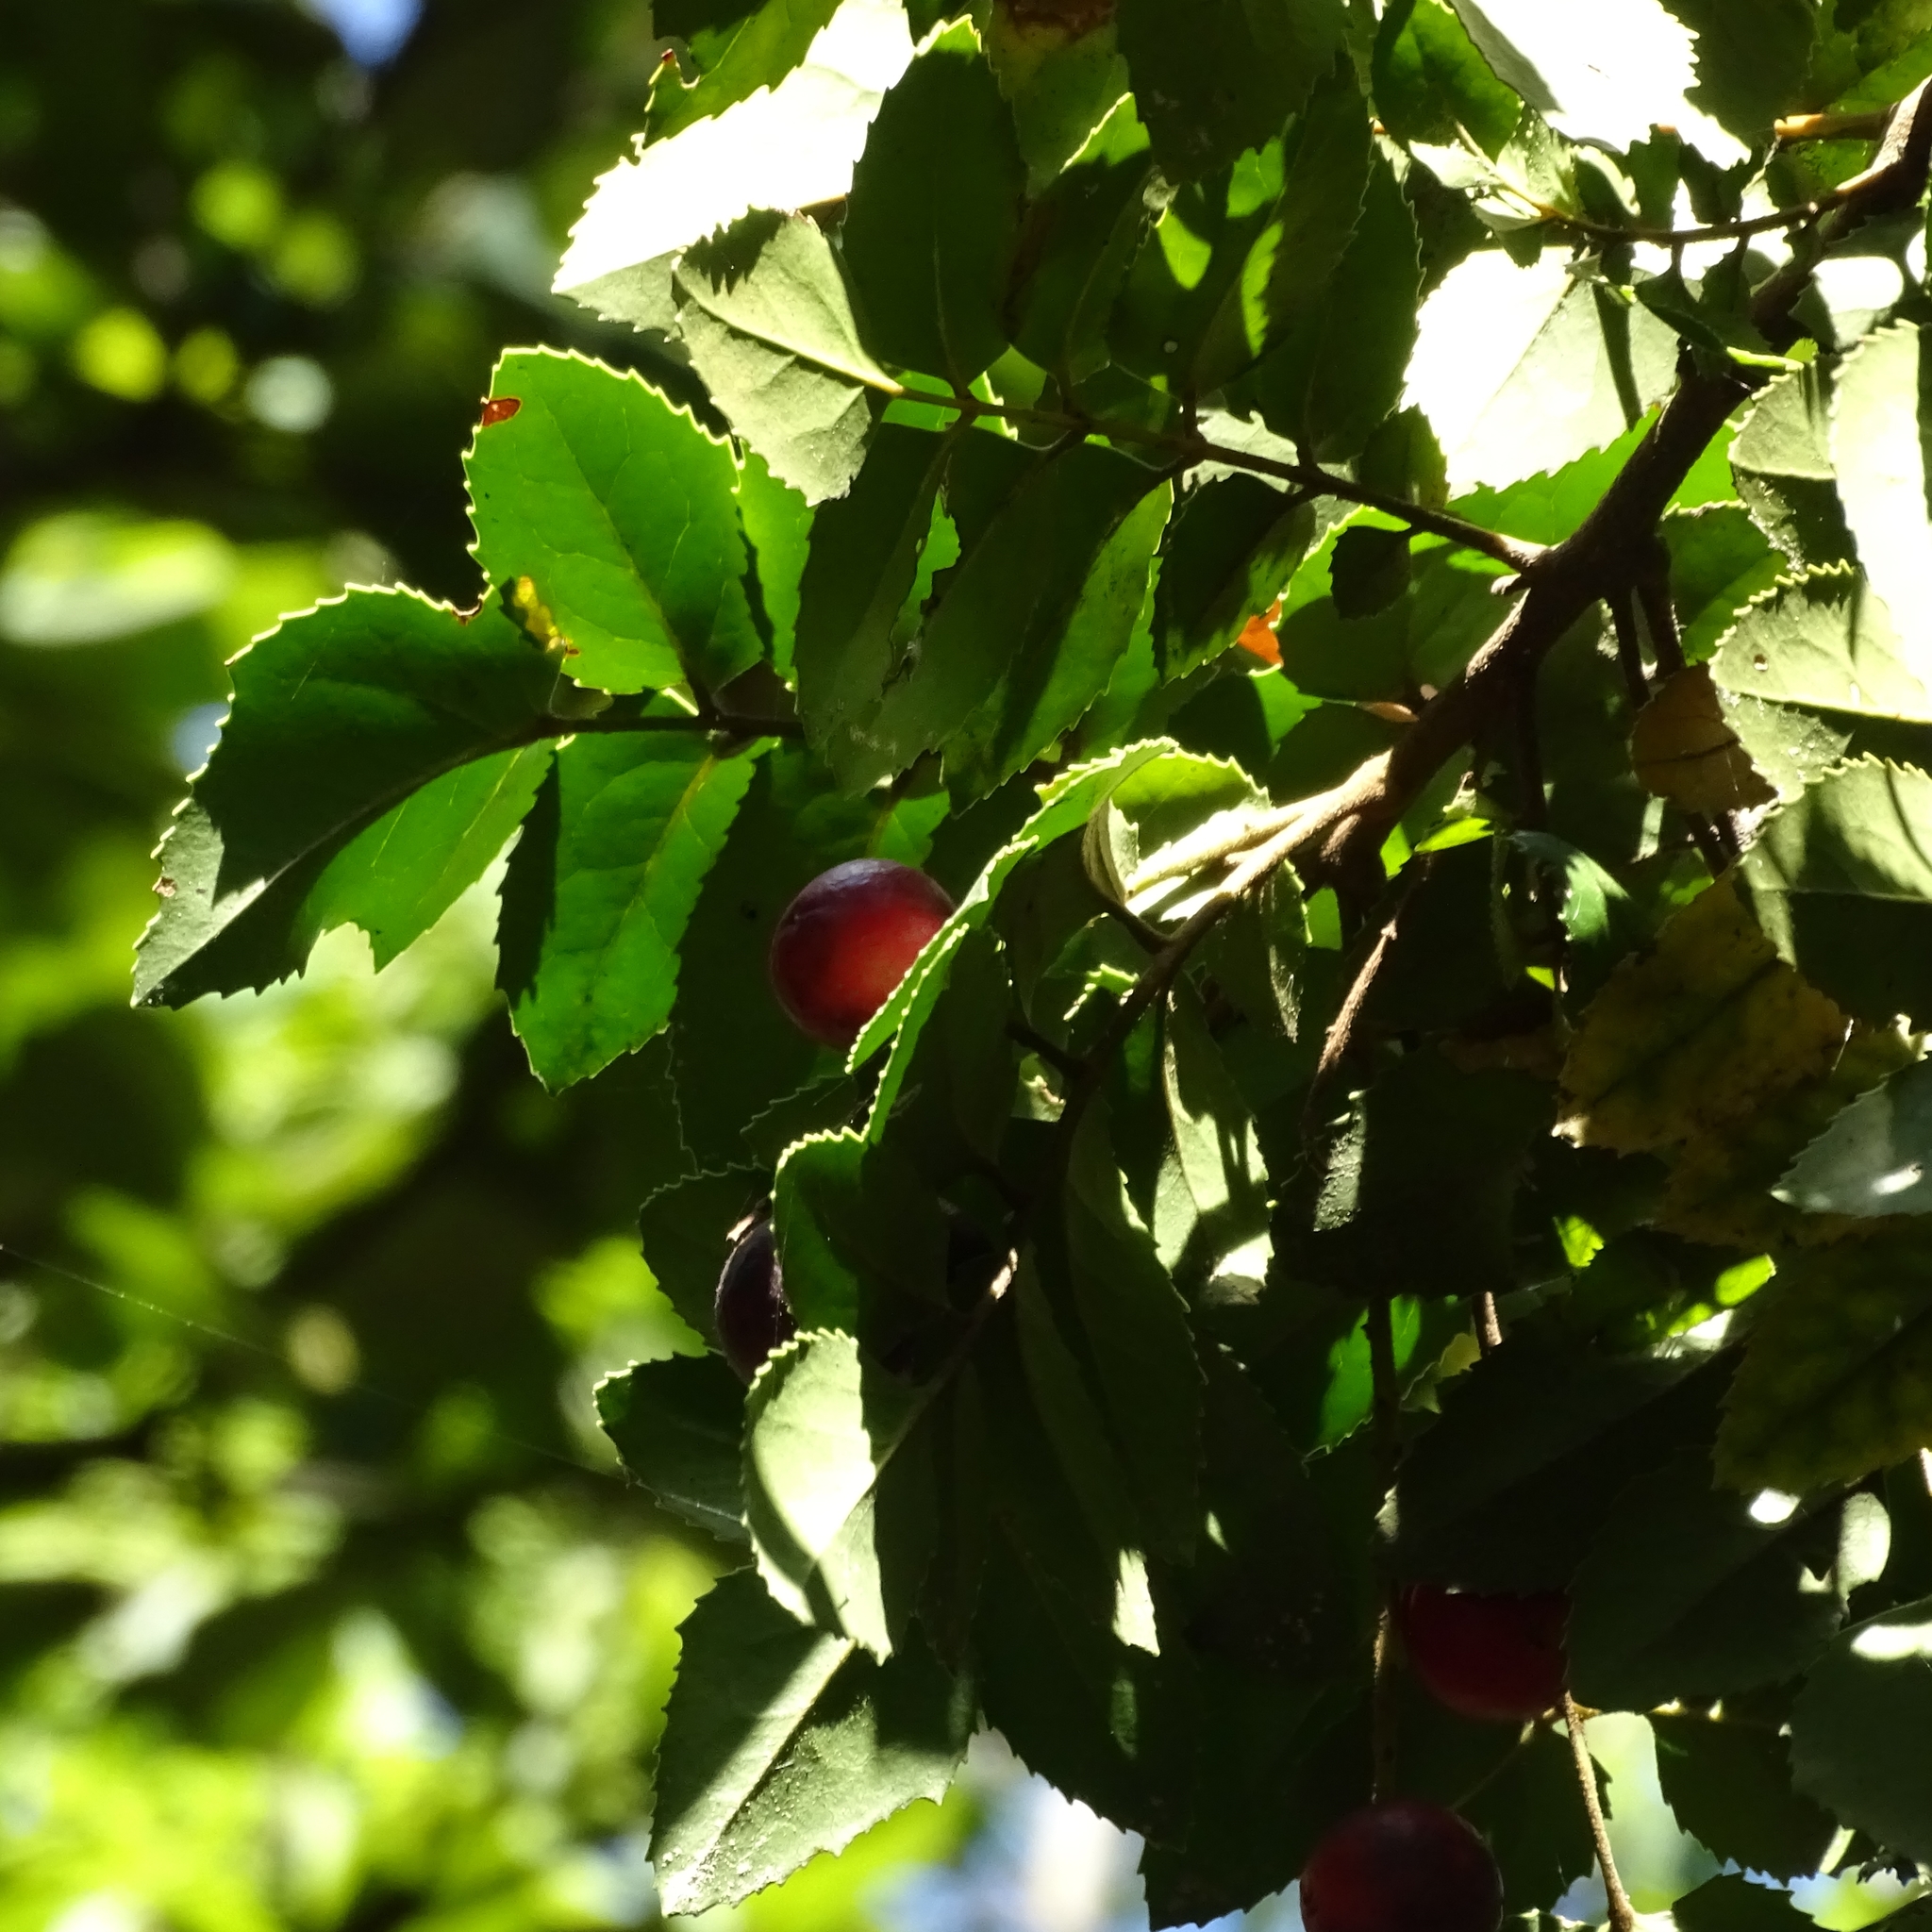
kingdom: Plantae
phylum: Tracheophyta
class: Magnoliopsida
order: Proteales
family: Proteaceae
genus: Gevuina
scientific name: Gevuina avellana
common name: Chilean hazel
